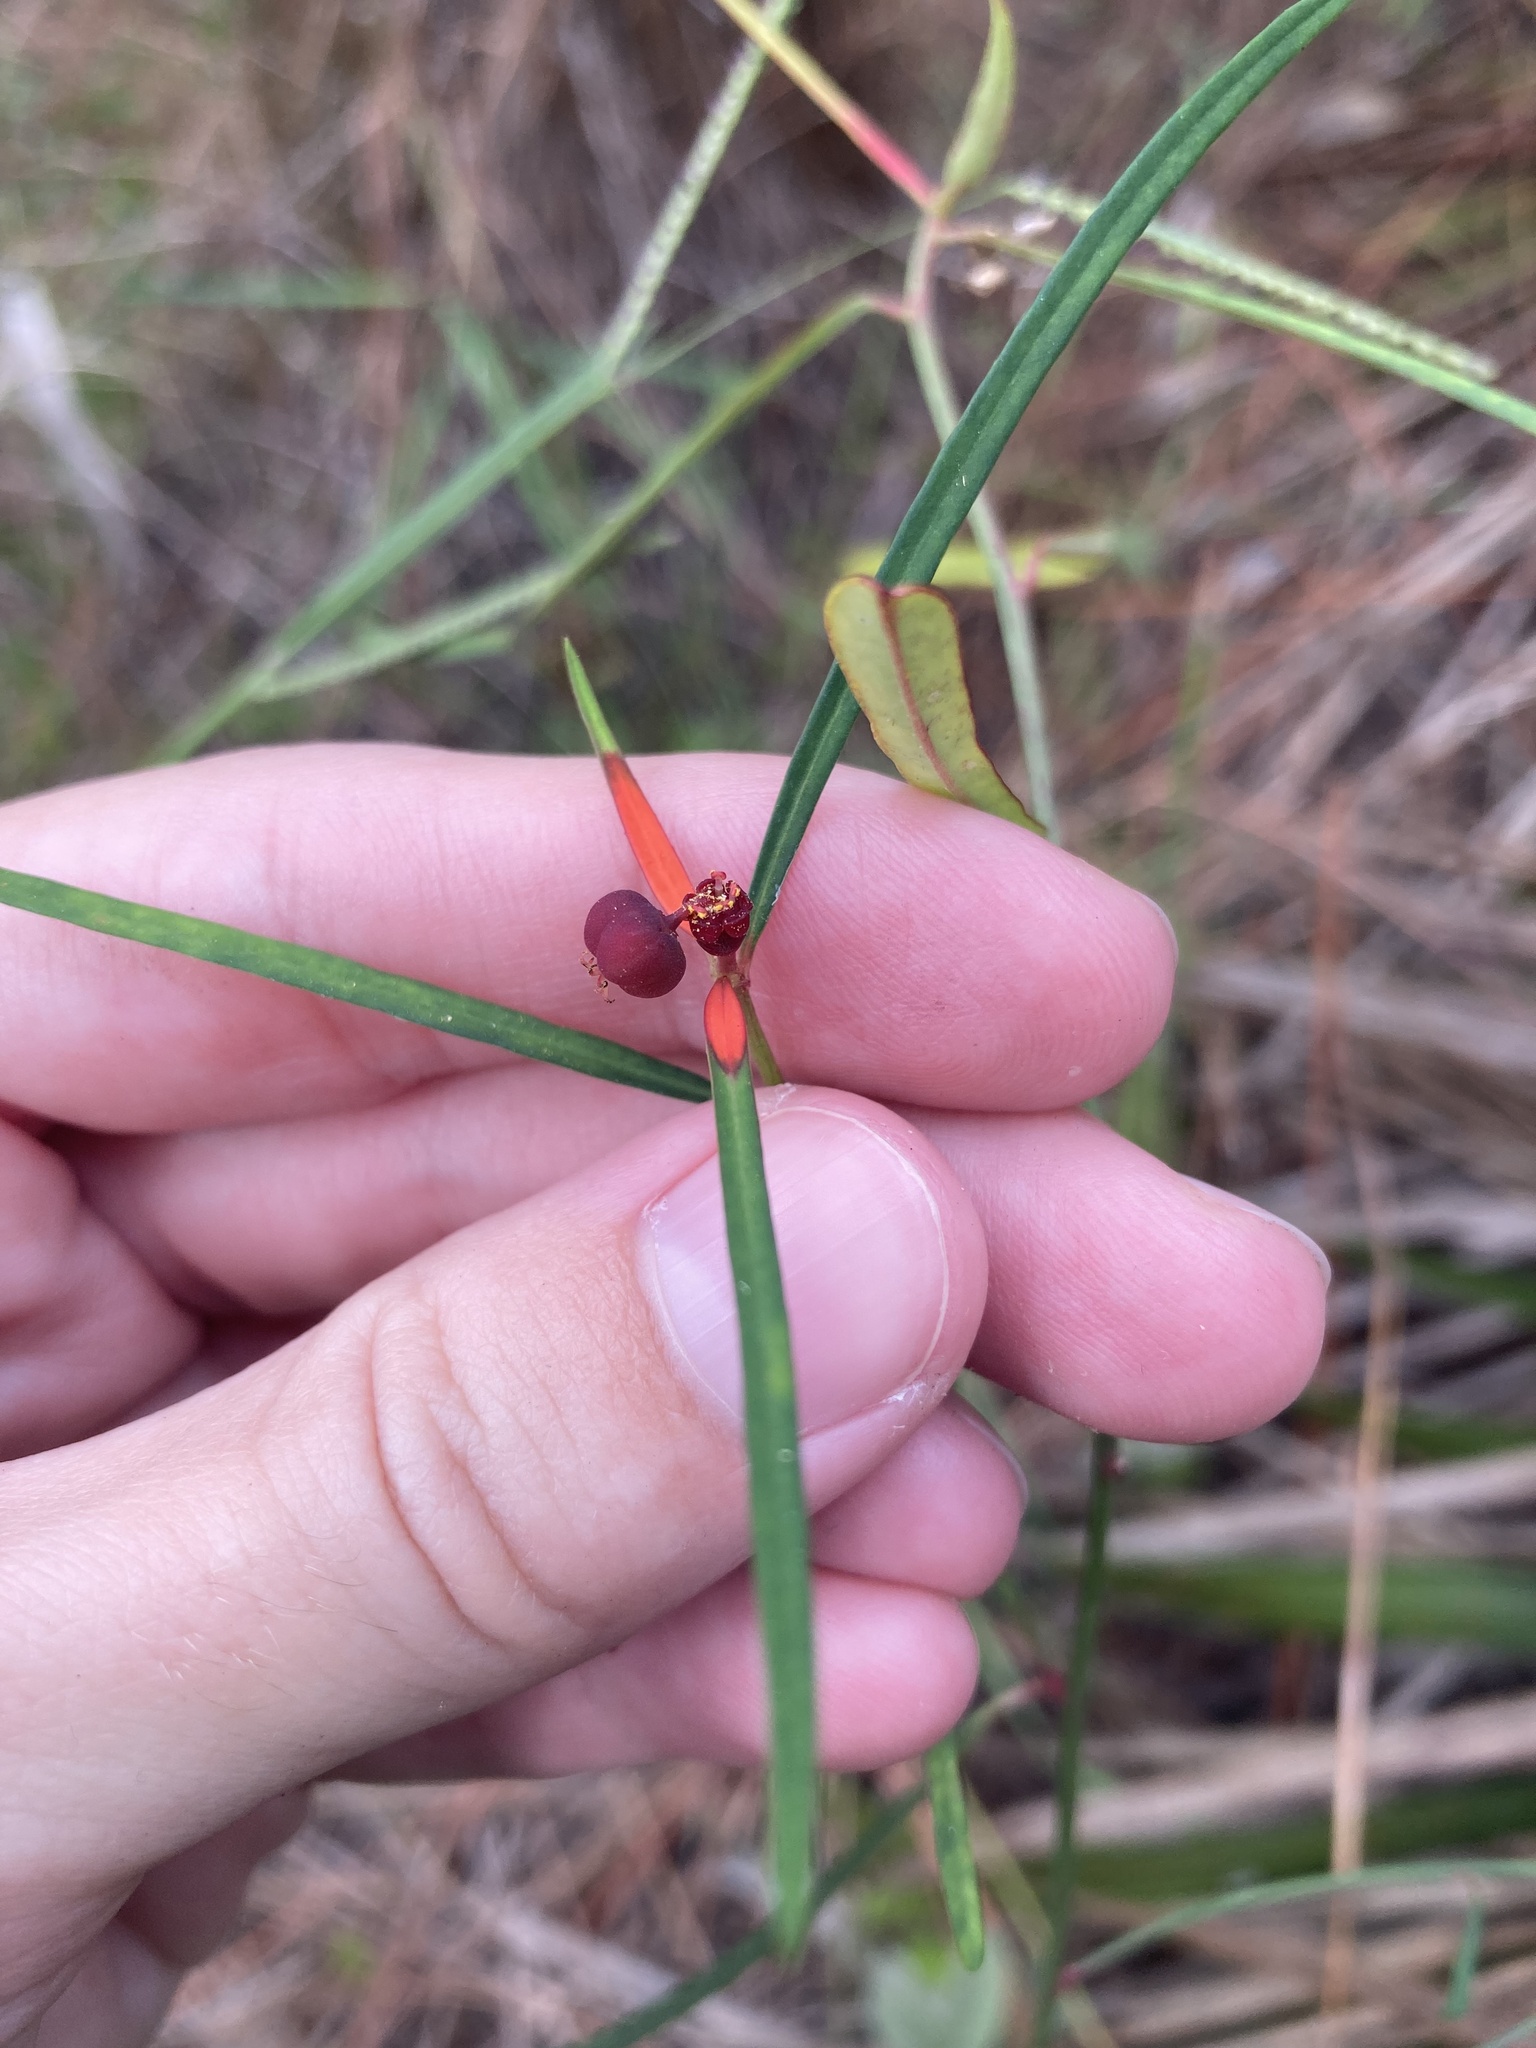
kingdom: Plantae
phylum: Tracheophyta
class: Magnoliopsida
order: Malpighiales
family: Euphorbiaceae
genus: Euphorbia
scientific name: Euphorbia pinetorum
